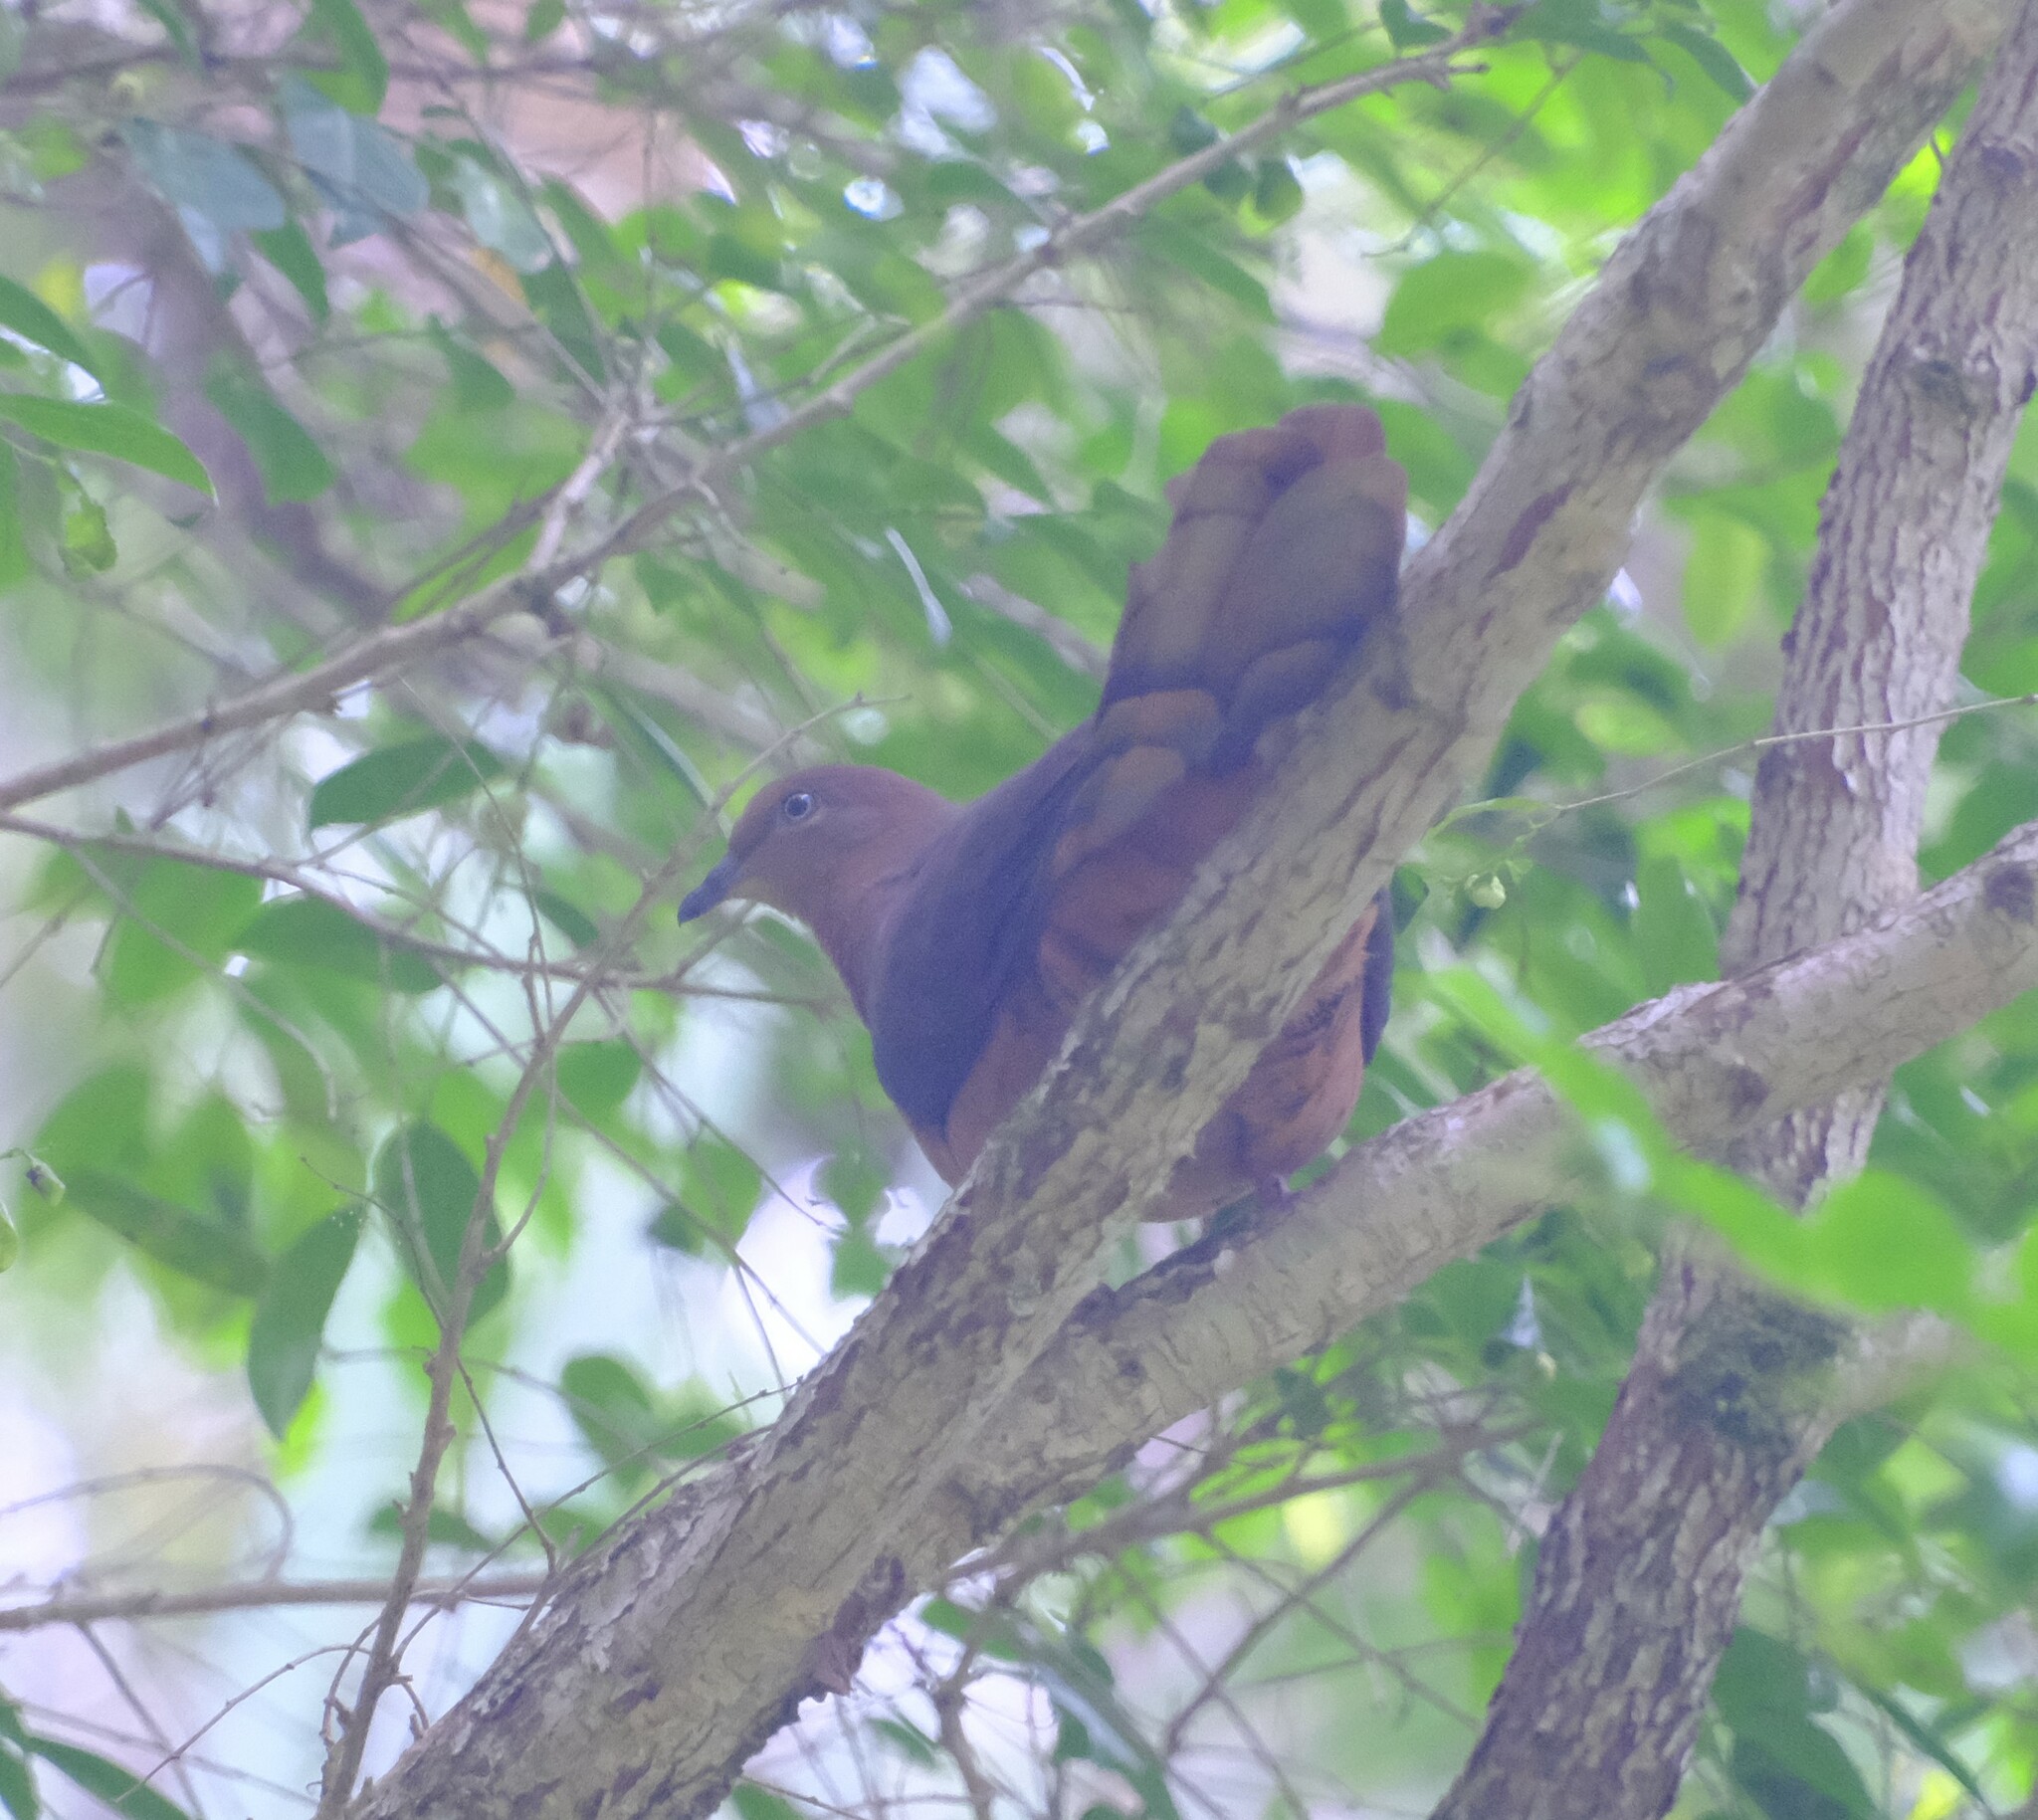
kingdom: Animalia
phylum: Chordata
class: Aves
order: Columbiformes
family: Columbidae
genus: Macropygia
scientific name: Macropygia phasianella
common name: Brown cuckoo-dove
